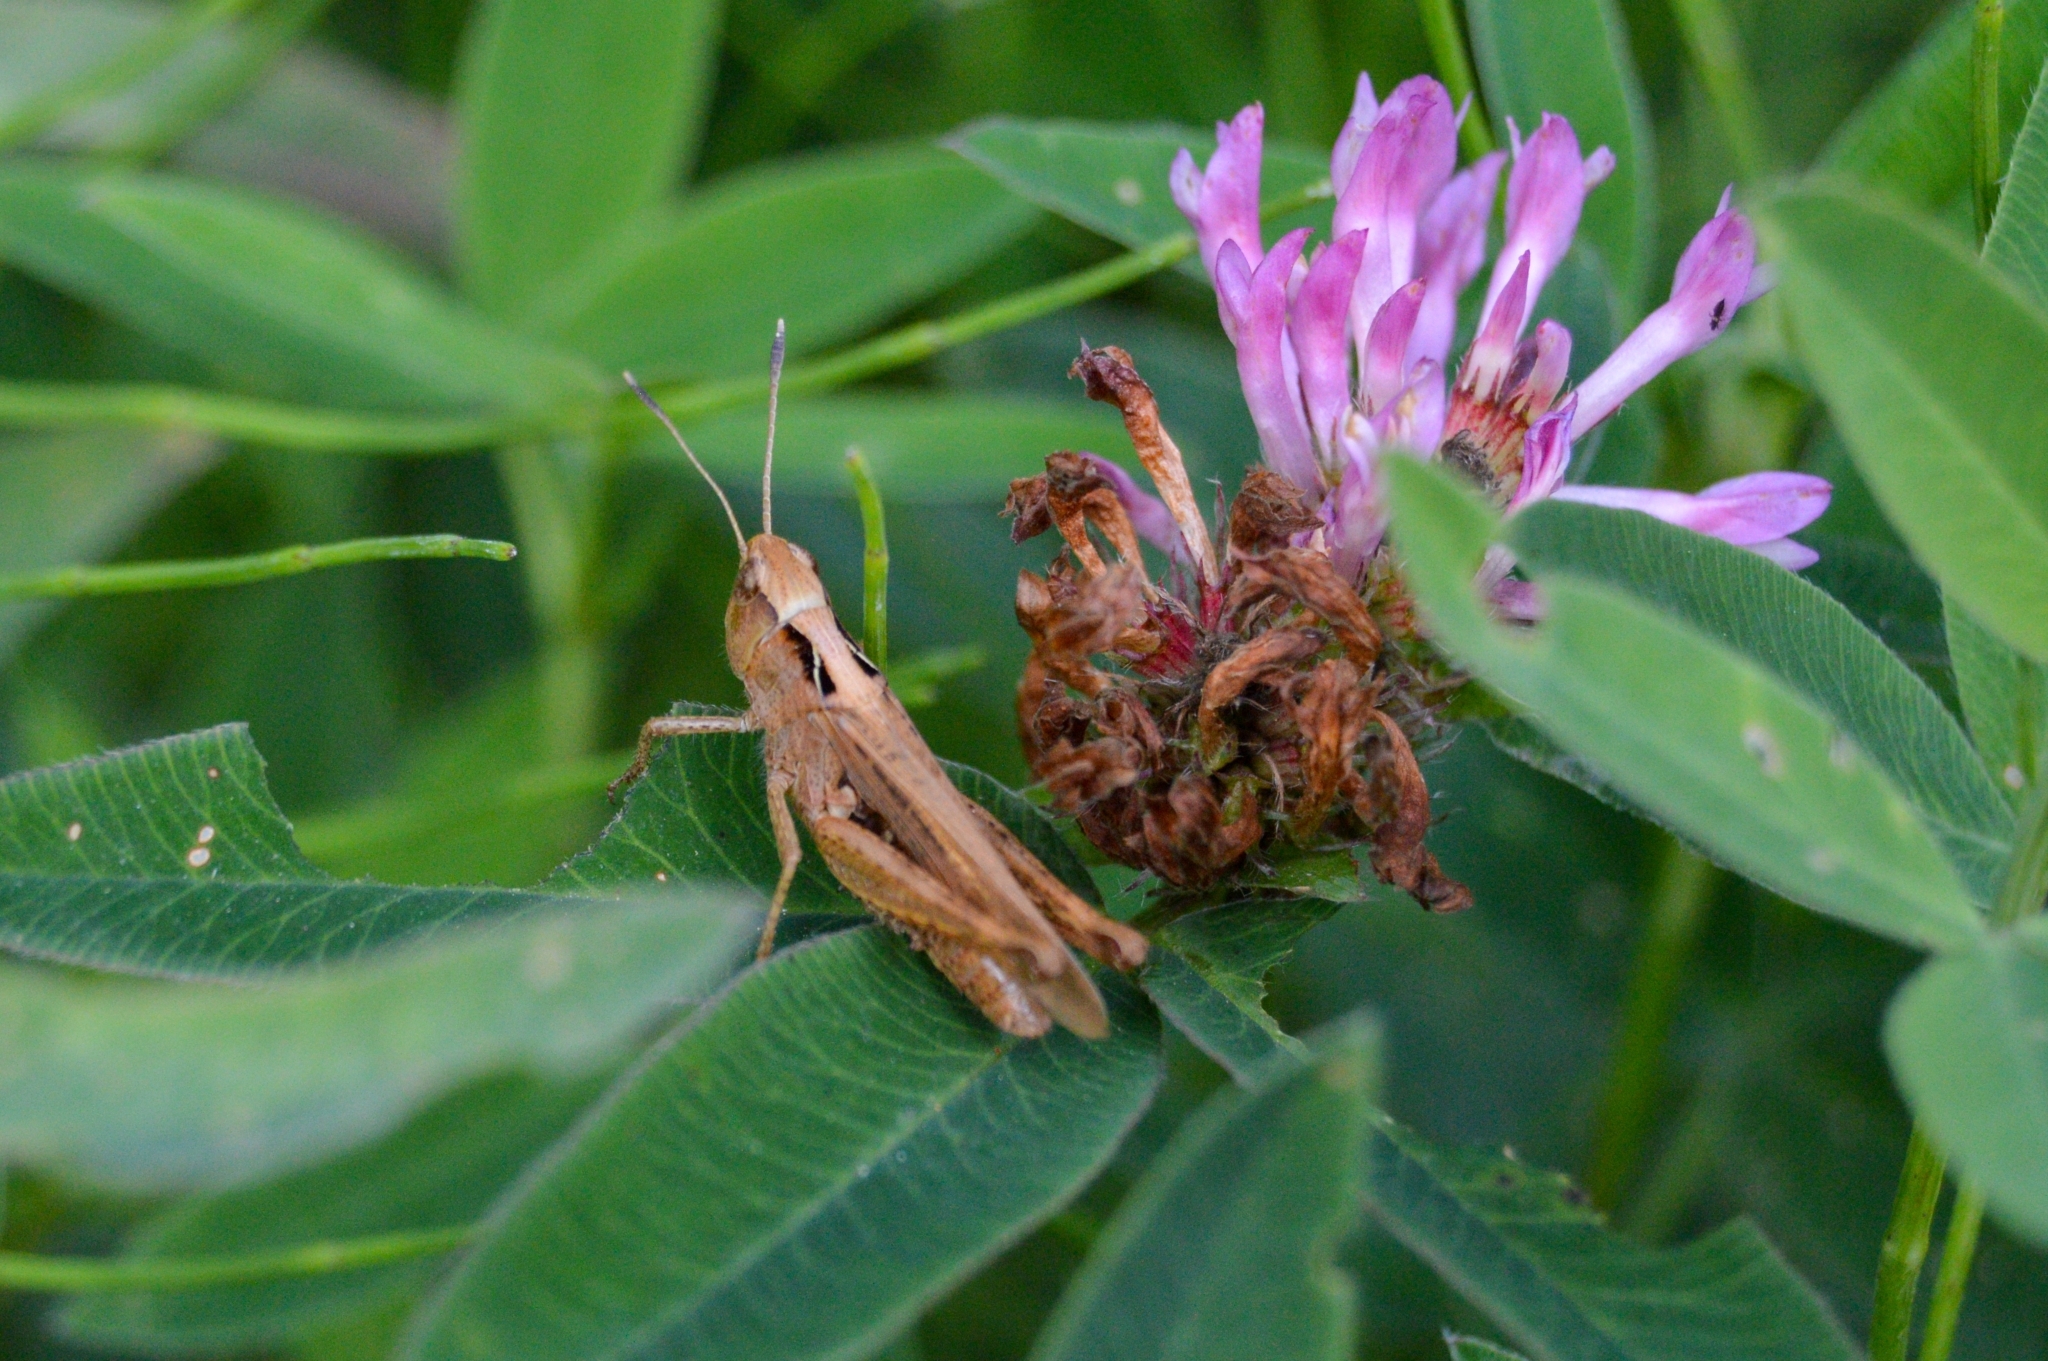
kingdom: Animalia
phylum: Arthropoda
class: Insecta
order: Orthoptera
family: Acrididae
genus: Gomphocerippus
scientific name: Gomphocerippus rufus
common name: Rufous grasshopper
